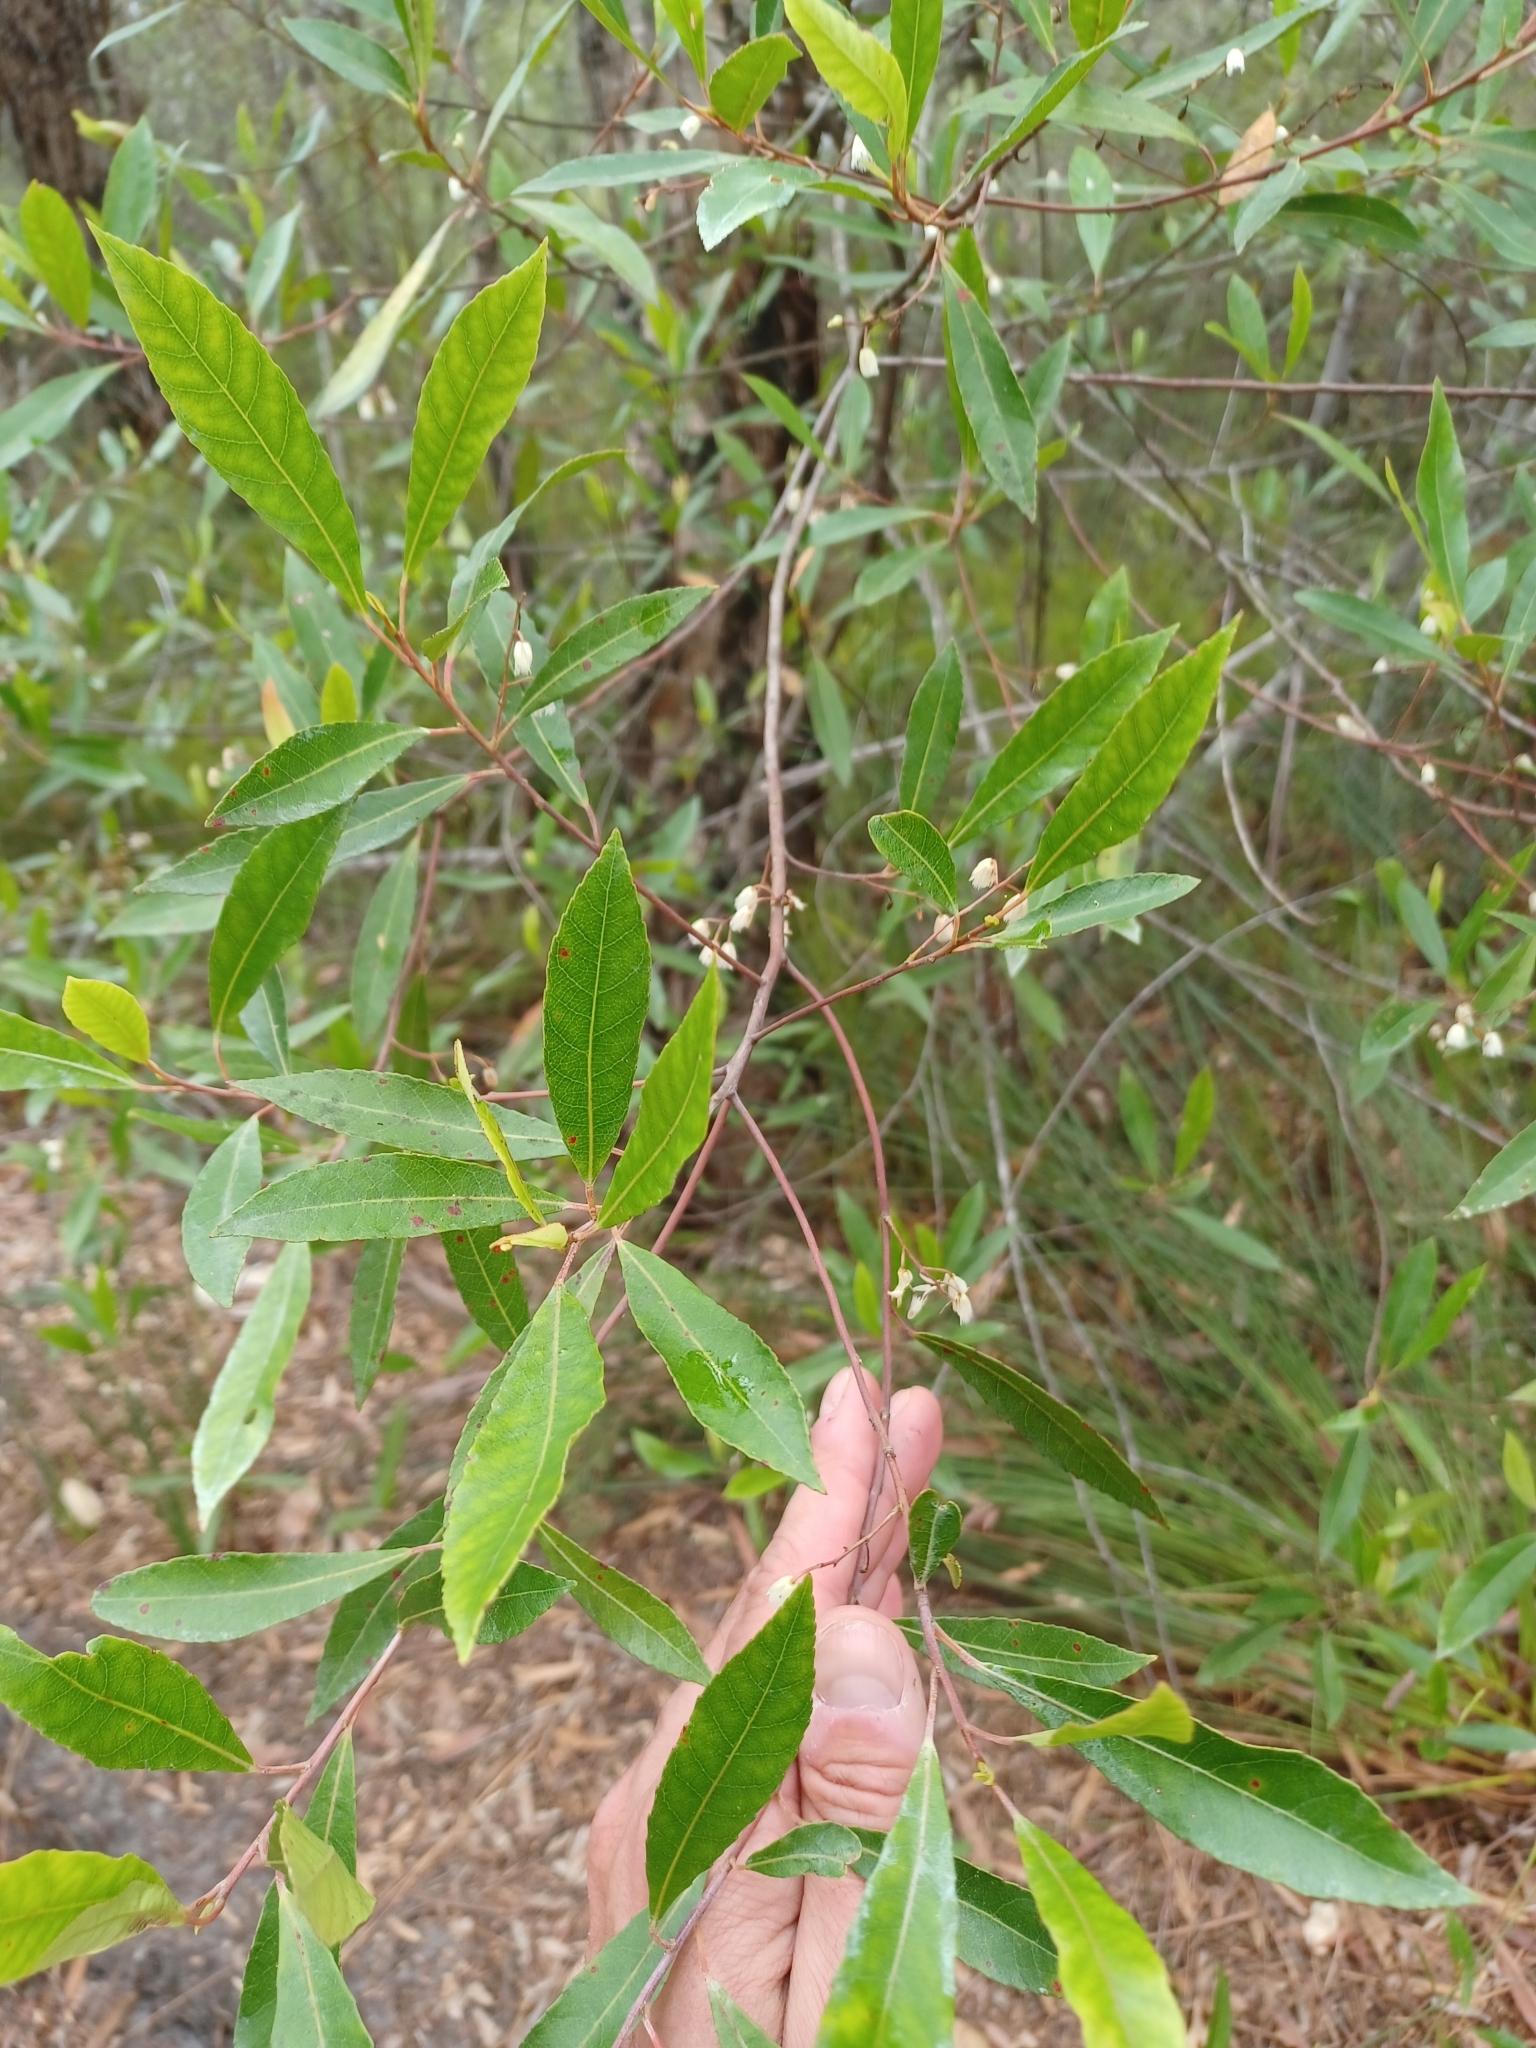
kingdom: Plantae
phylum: Tracheophyta
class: Magnoliopsida
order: Oxalidales
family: Elaeocarpaceae
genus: Elaeocarpus
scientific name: Elaeocarpus reticulatus
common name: Ash quandong
